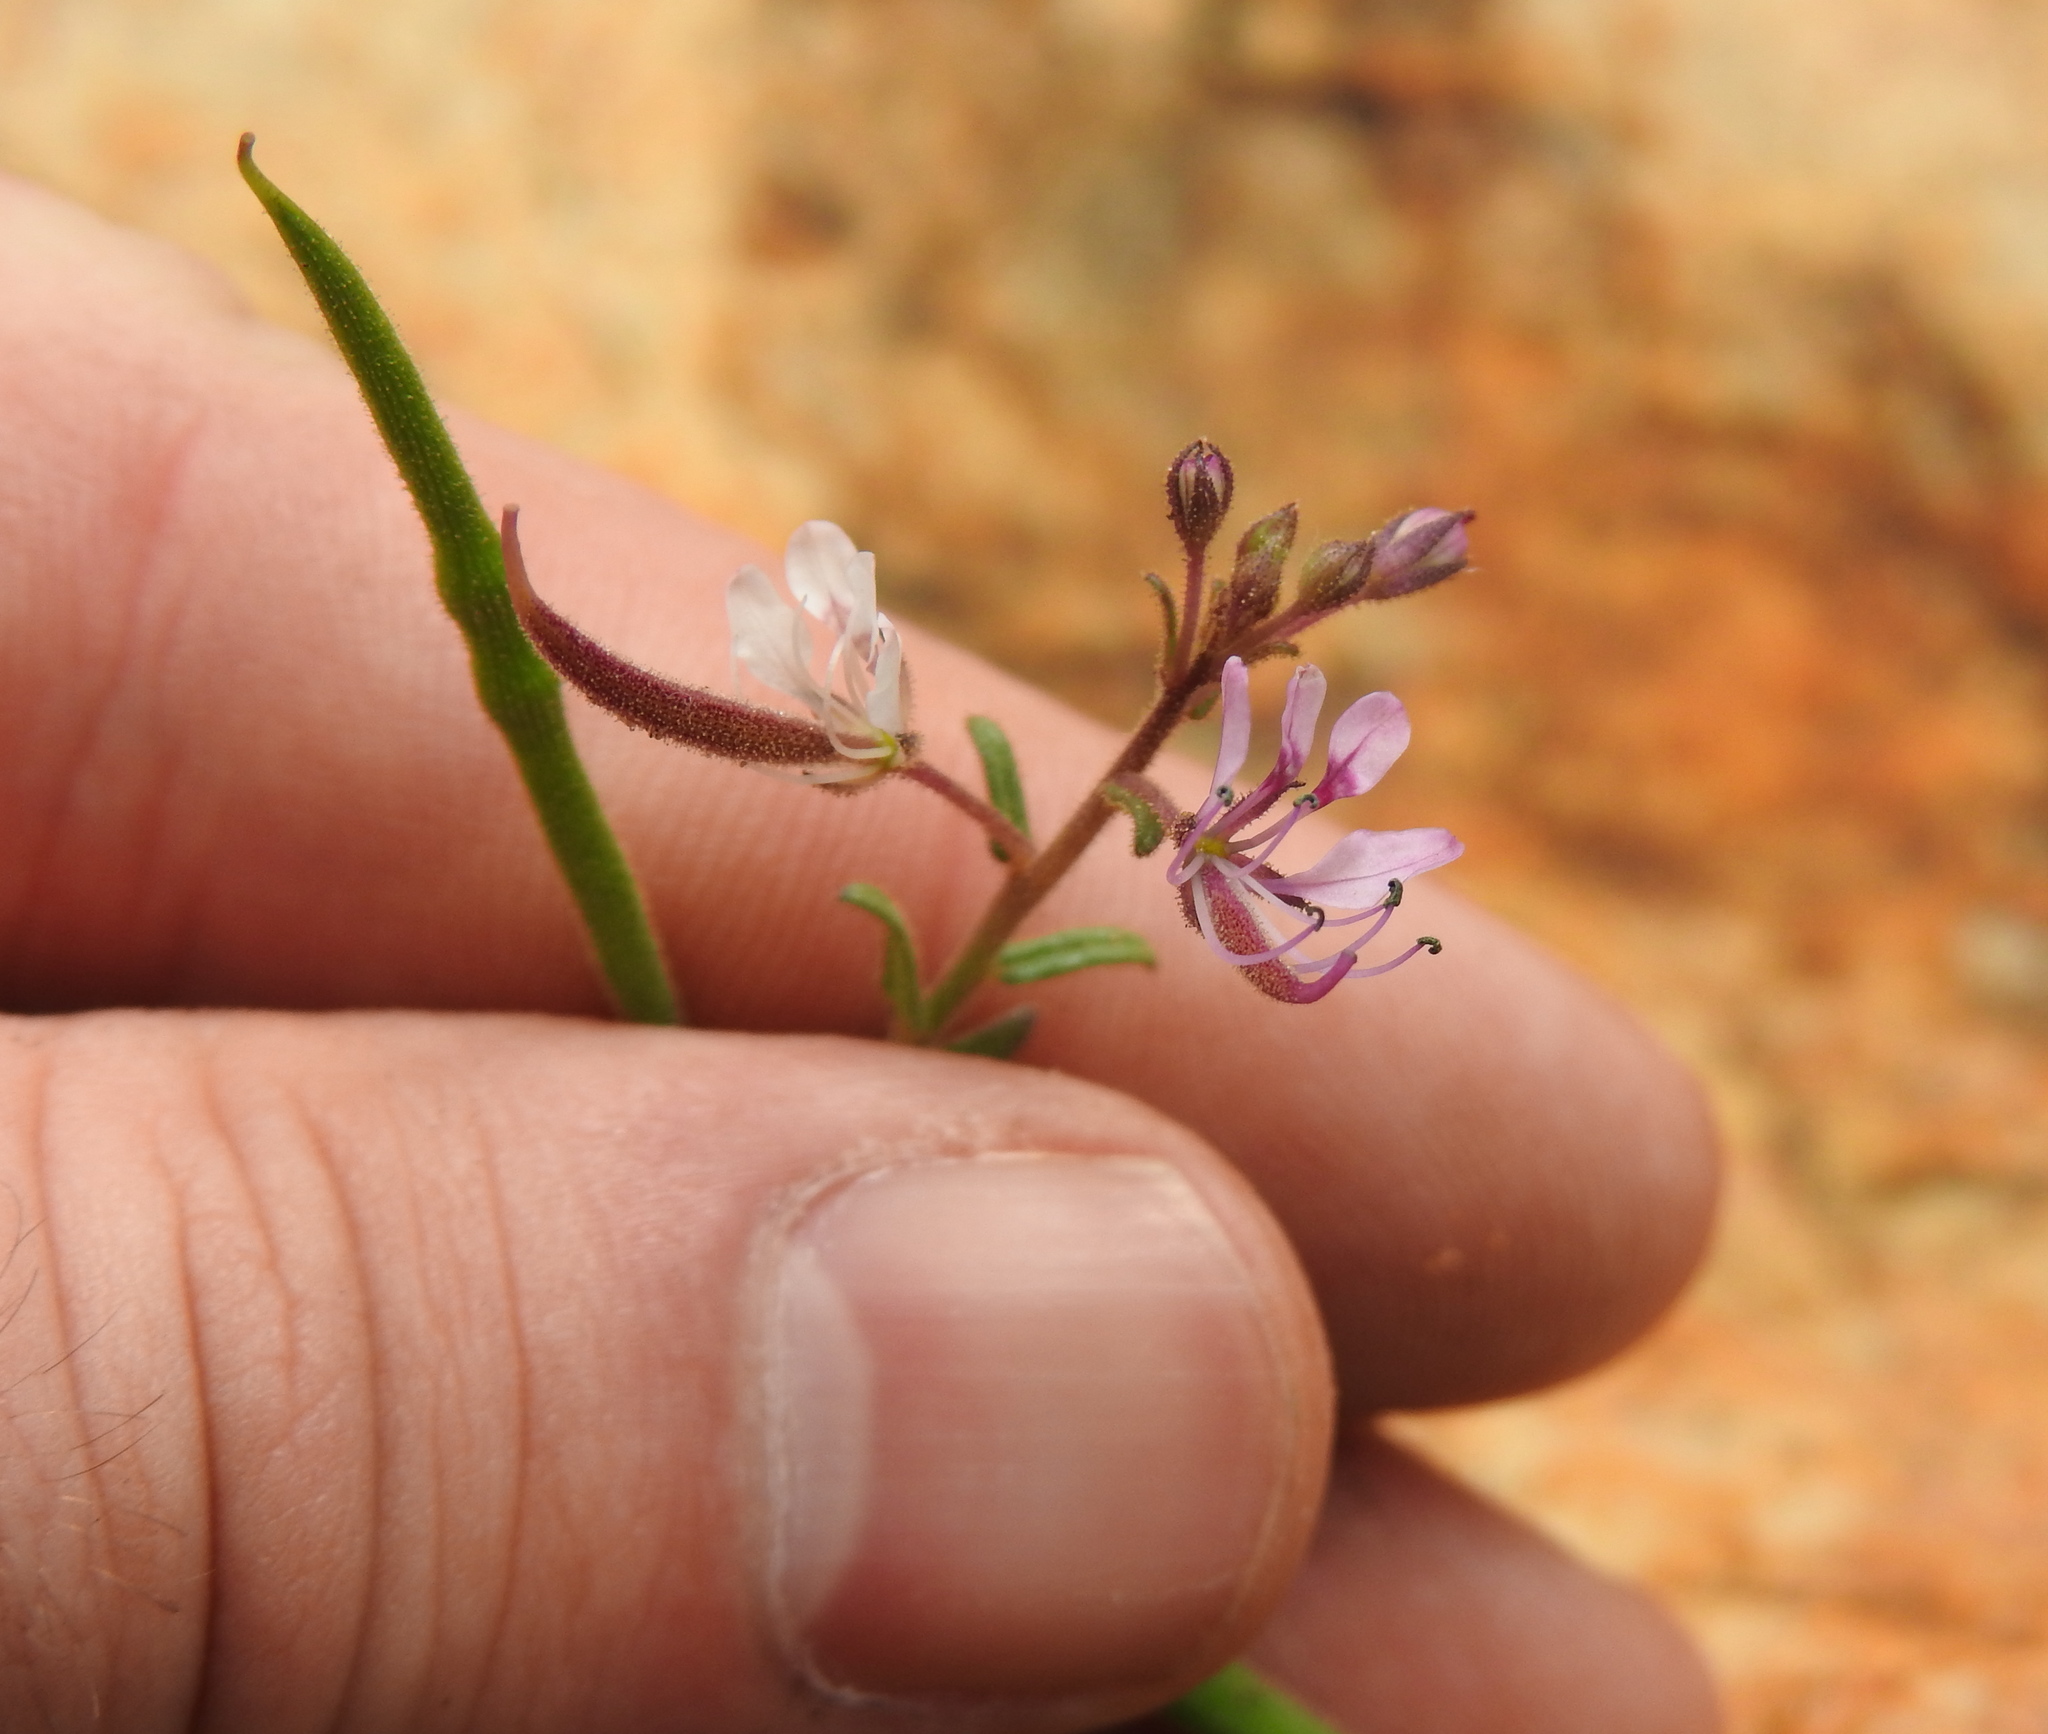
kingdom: Plantae
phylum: Tracheophyta
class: Magnoliopsida
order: Brassicales
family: Cleomaceae
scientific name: Cleomaceae
